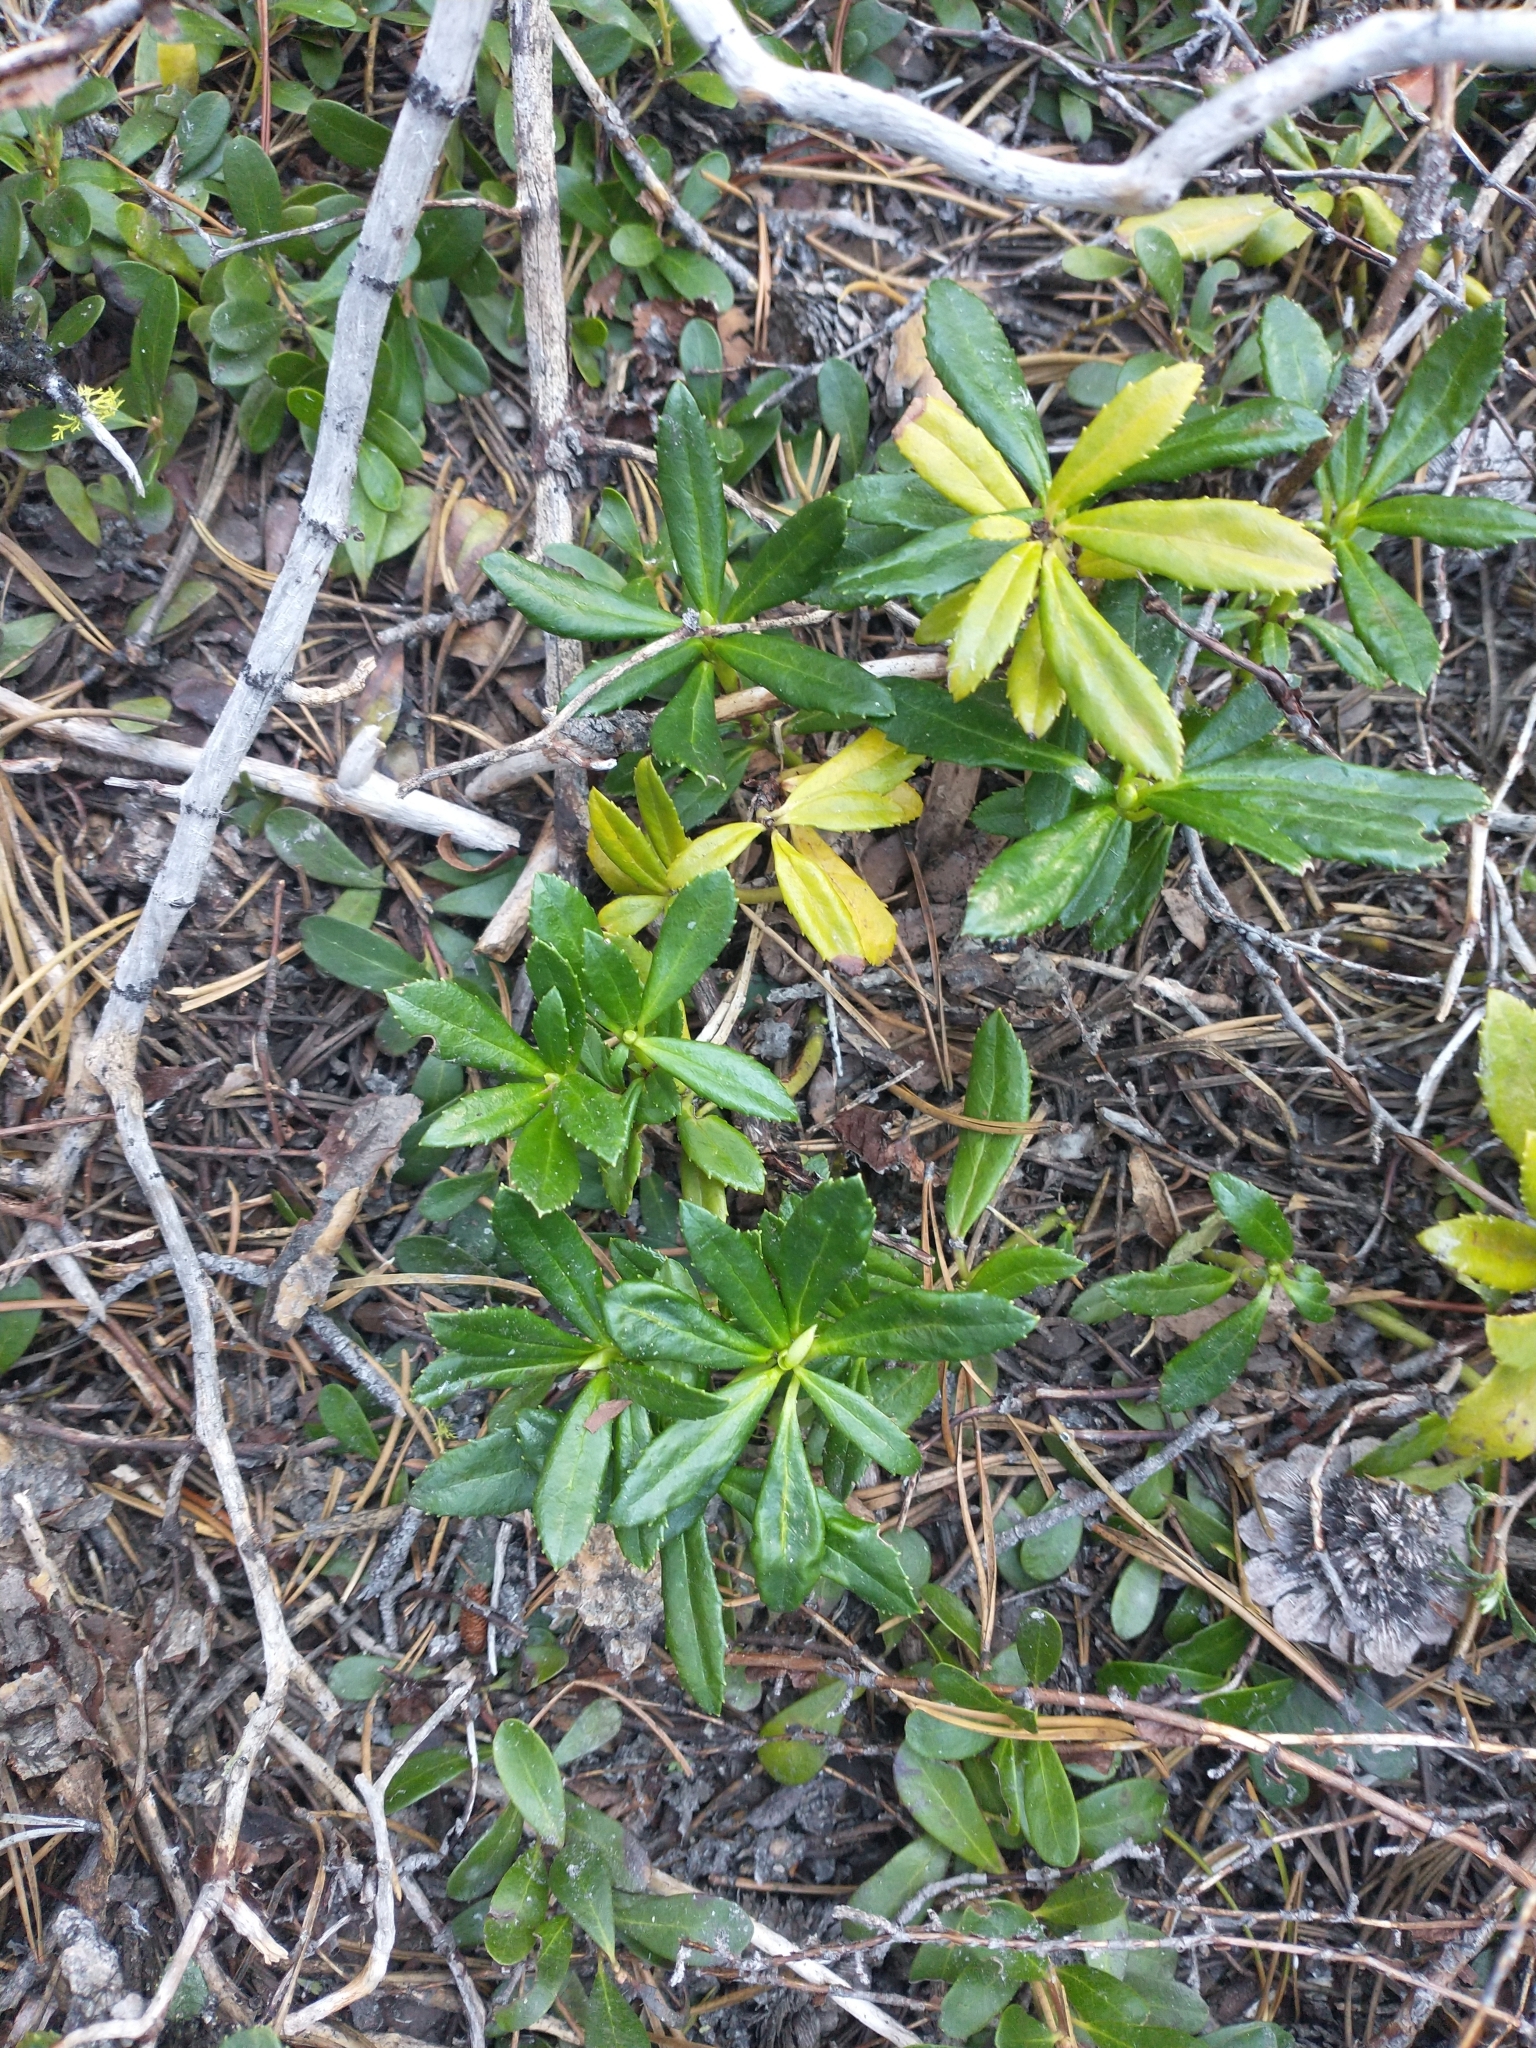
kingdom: Plantae
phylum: Tracheophyta
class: Magnoliopsida
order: Ericales
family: Ericaceae
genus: Chimaphila
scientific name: Chimaphila umbellata
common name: Pipsissewa
